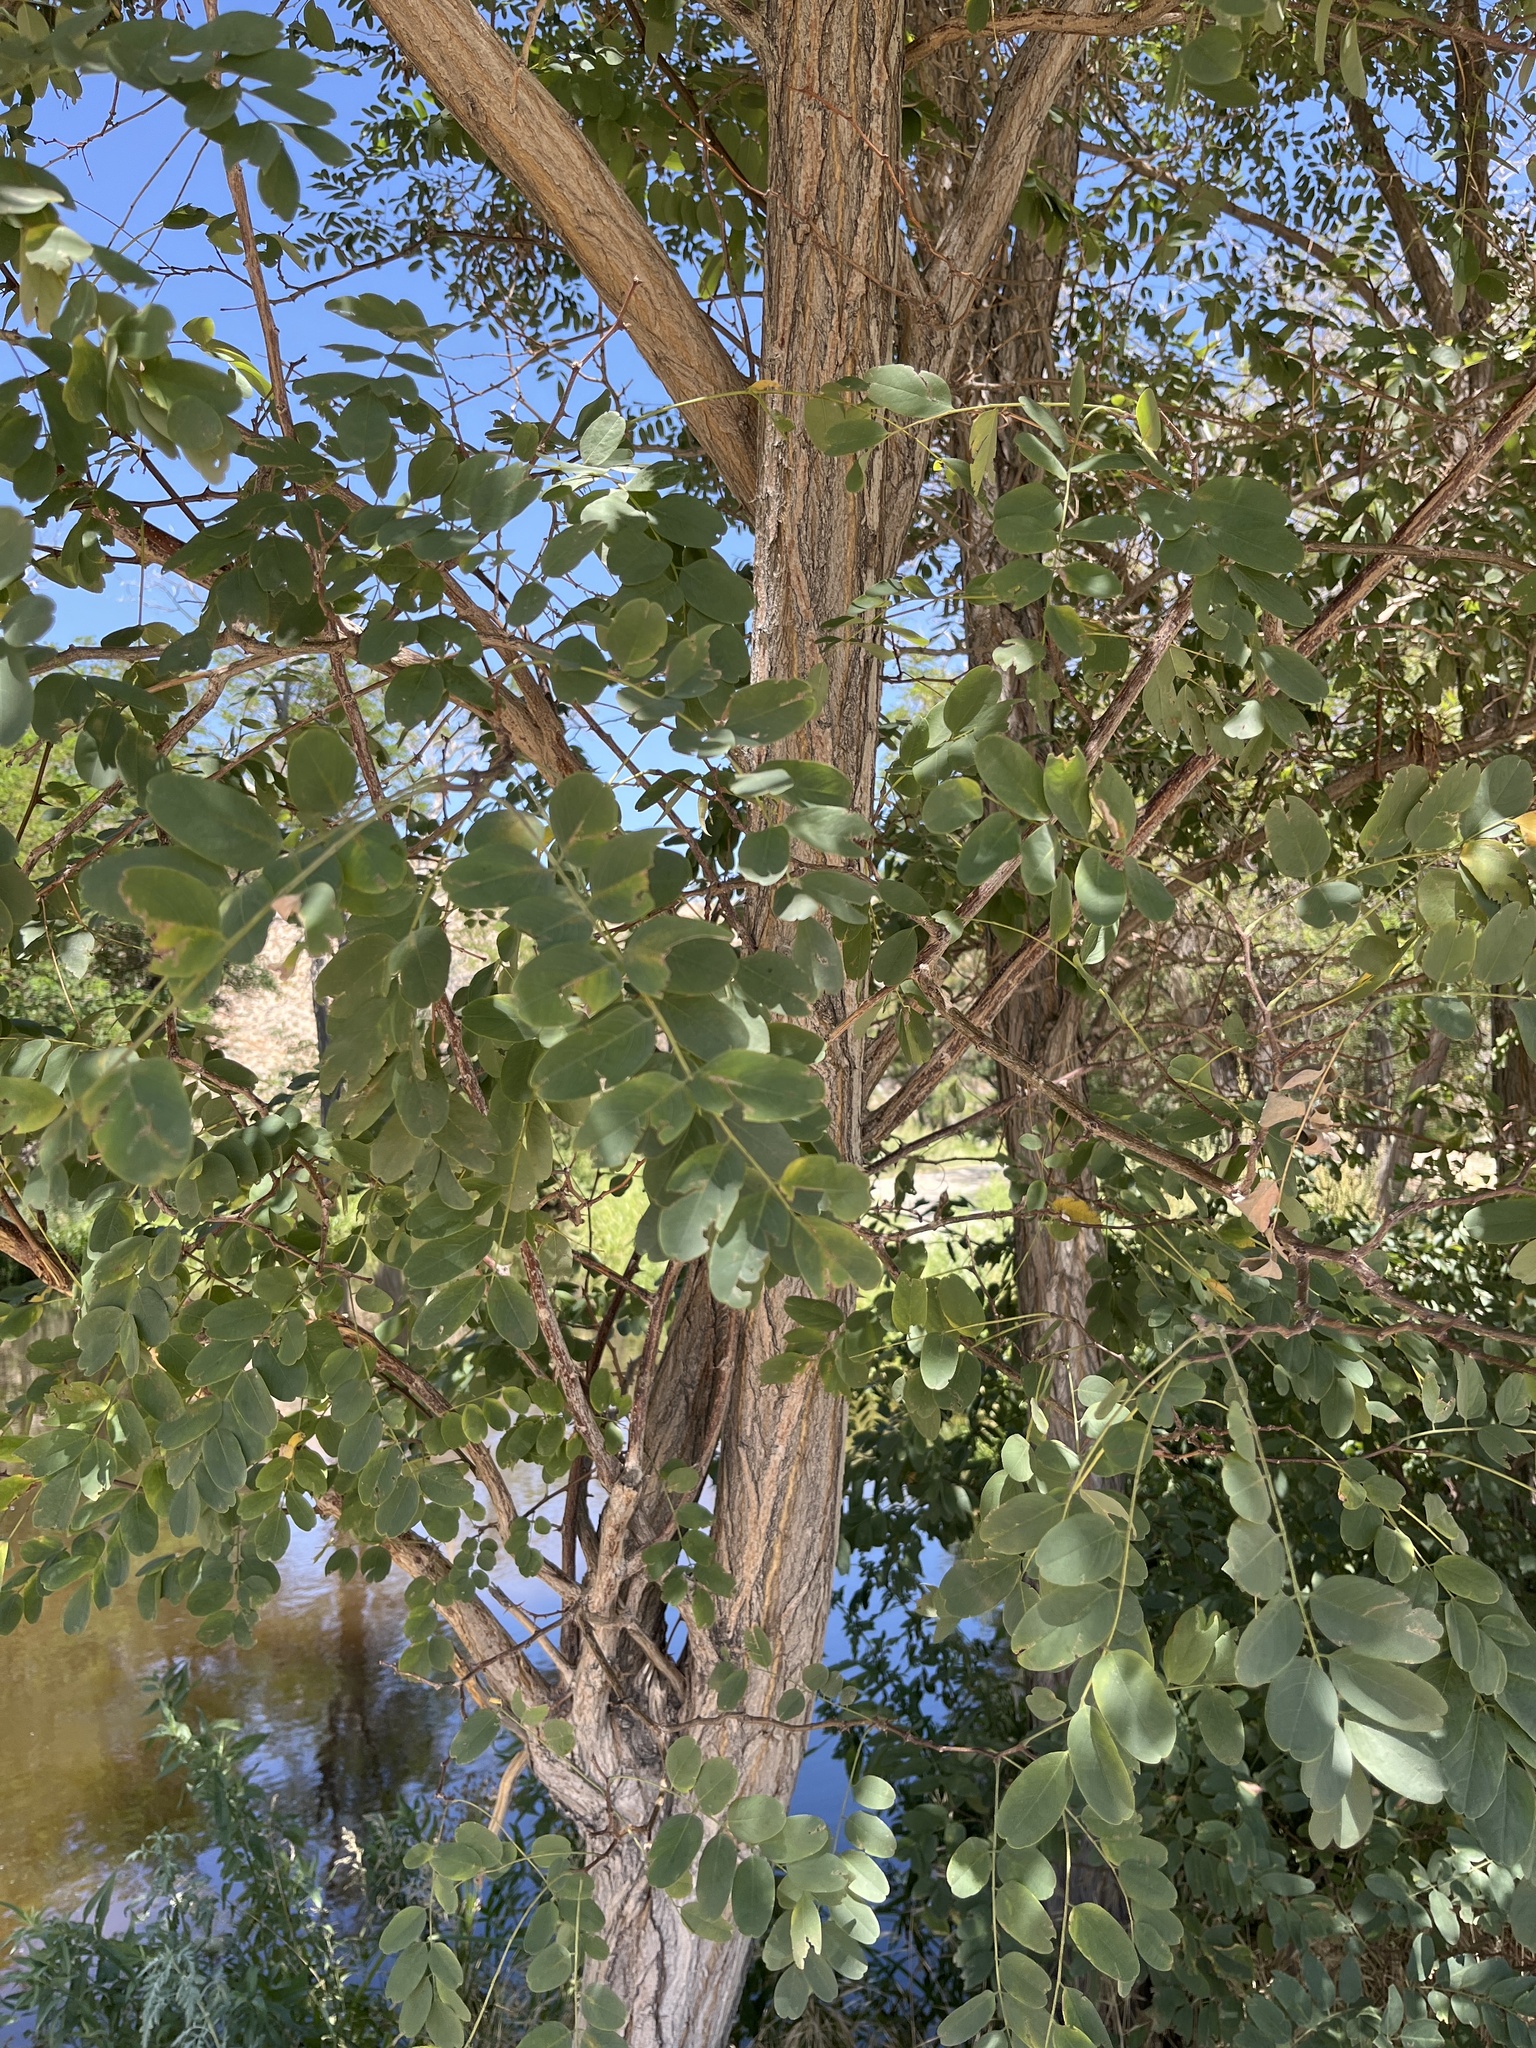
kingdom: Plantae
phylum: Tracheophyta
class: Magnoliopsida
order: Fabales
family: Fabaceae
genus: Robinia
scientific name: Robinia pseudoacacia
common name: Black locust
